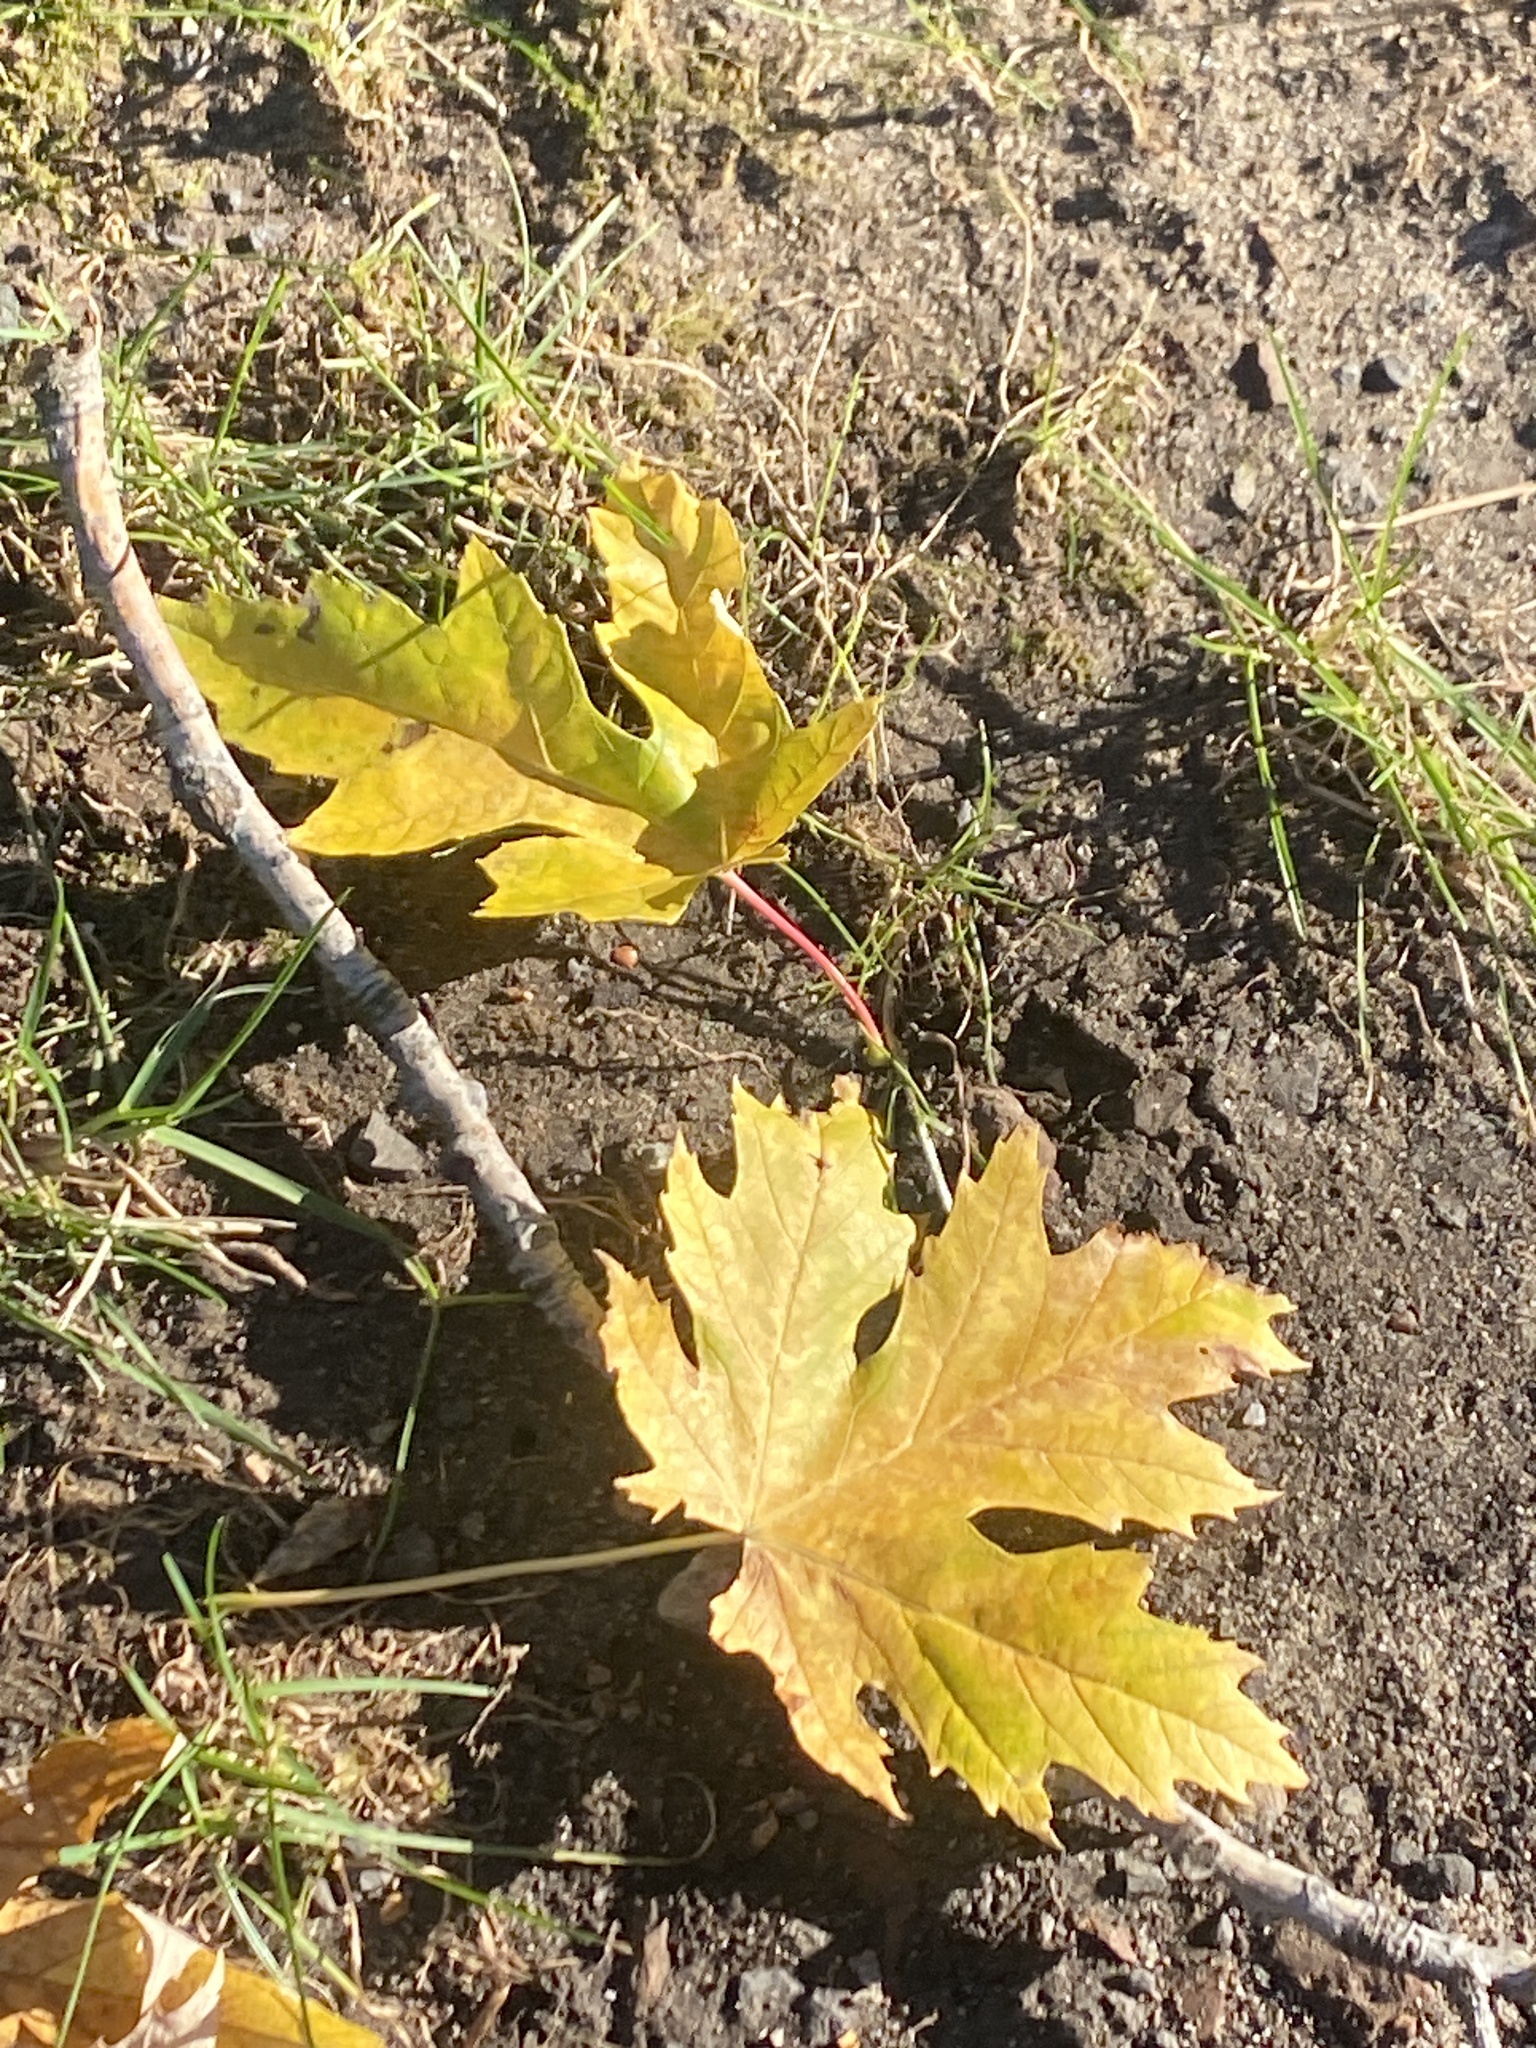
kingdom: Plantae
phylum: Tracheophyta
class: Magnoliopsida
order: Sapindales
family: Sapindaceae
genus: Acer
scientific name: Acer saccharinum
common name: Silver maple
